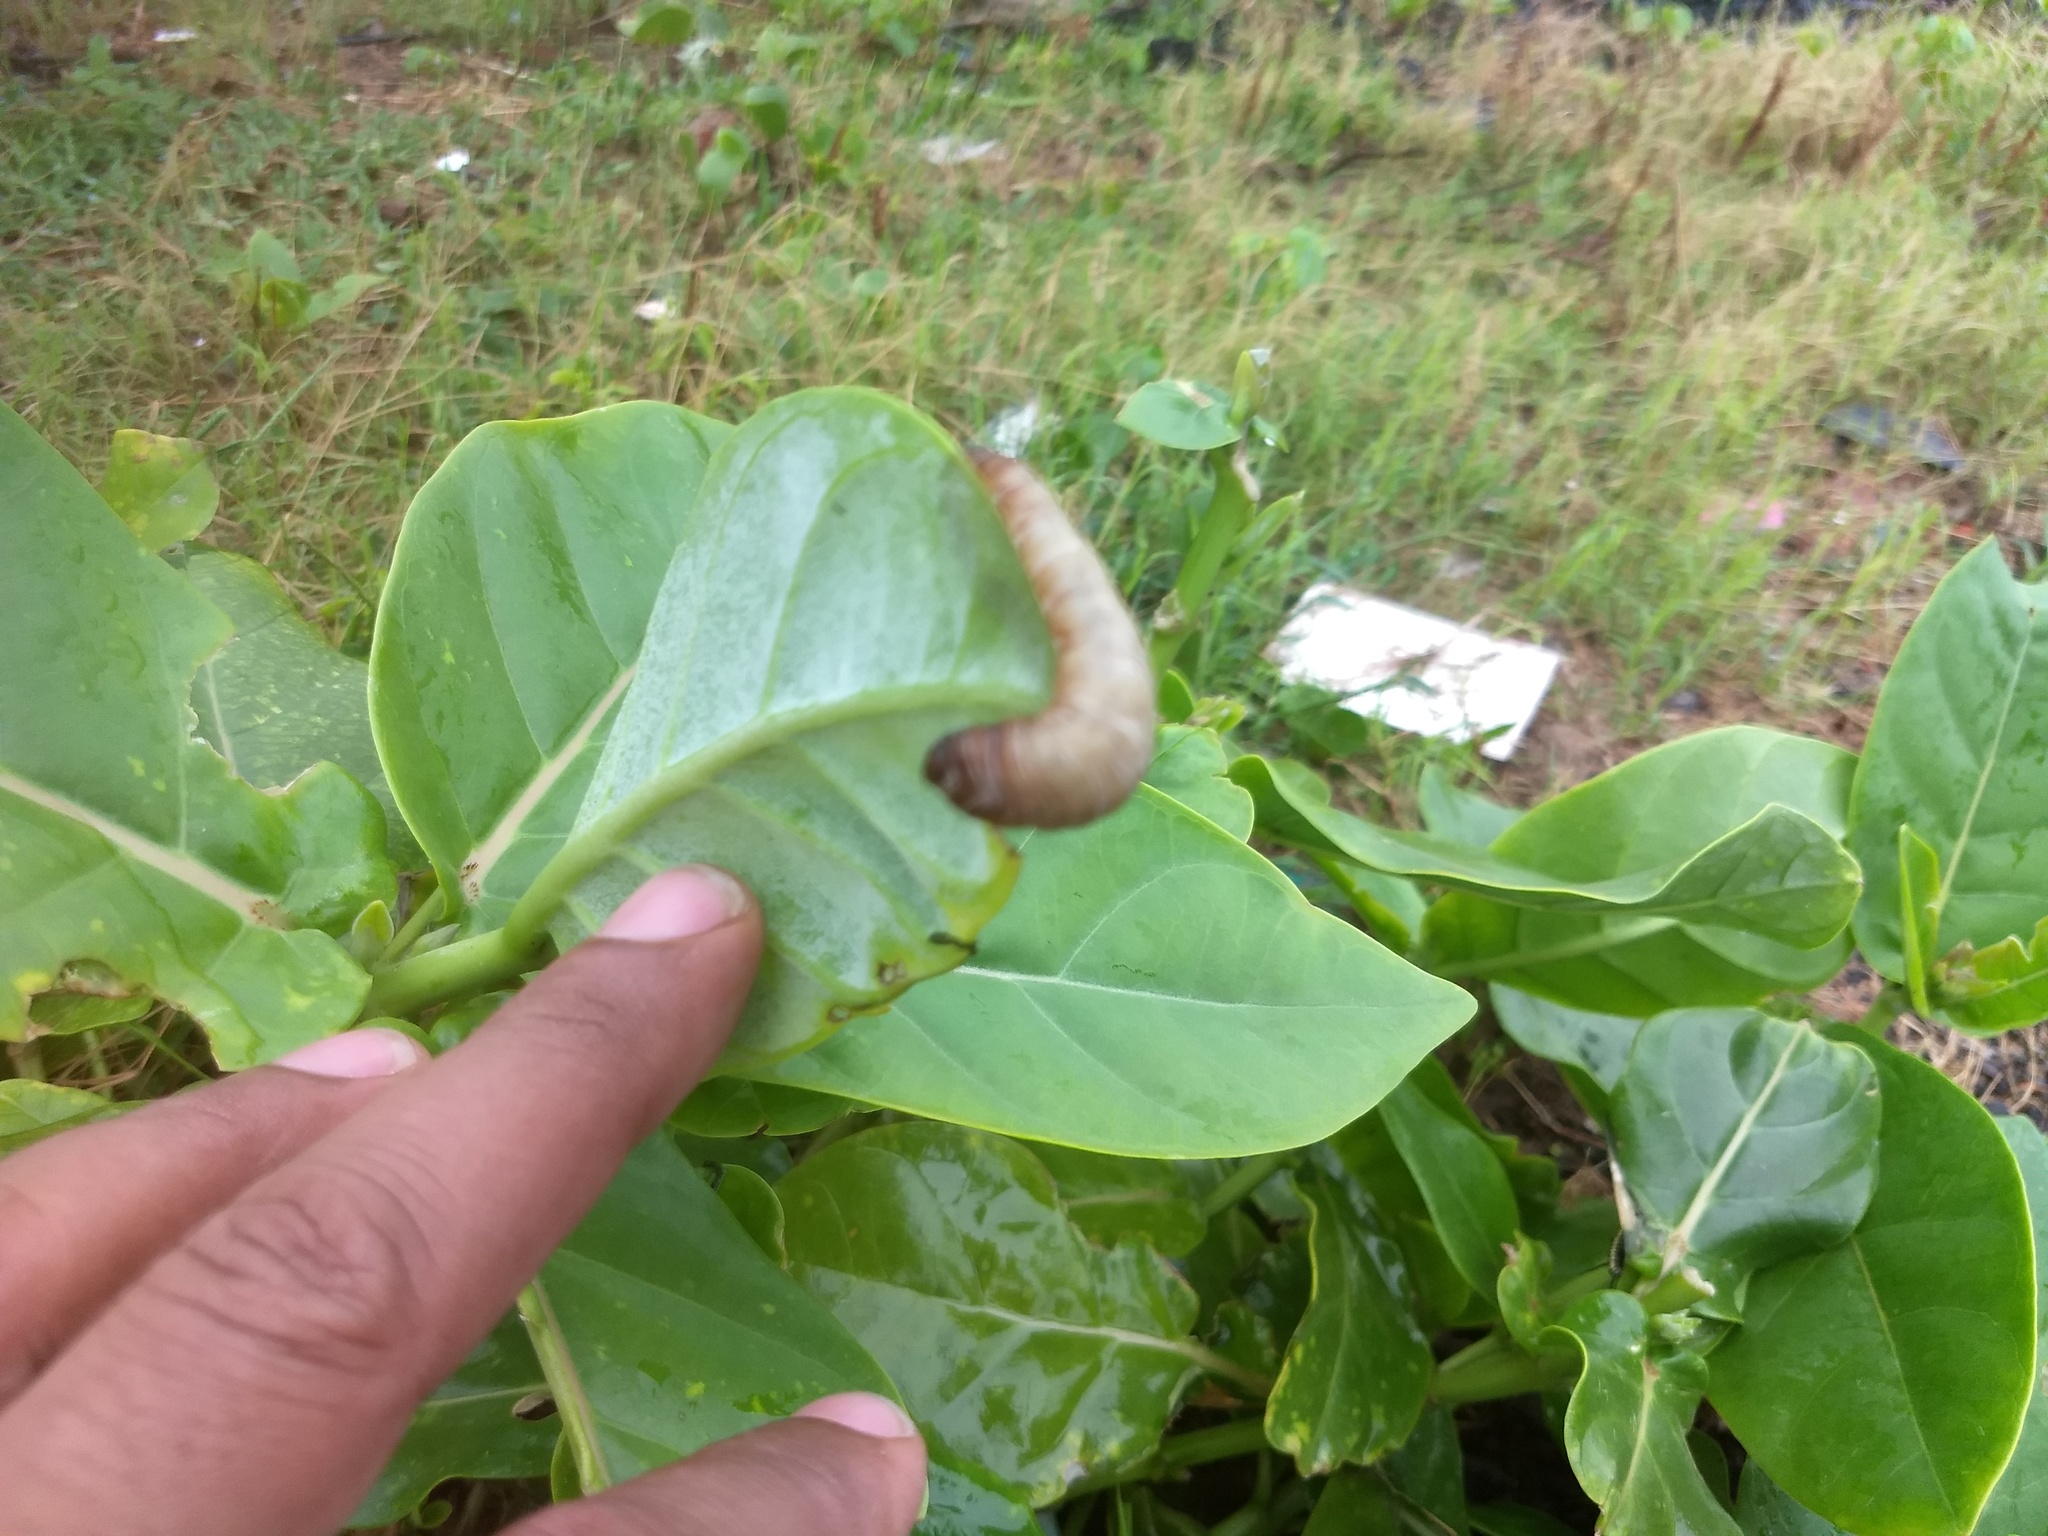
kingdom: Animalia
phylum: Mollusca
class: Gastropoda
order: Systellommatophora
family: Veronicellidae
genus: Laevicaulis
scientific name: Laevicaulis haroldi
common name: Caterpillar slug
